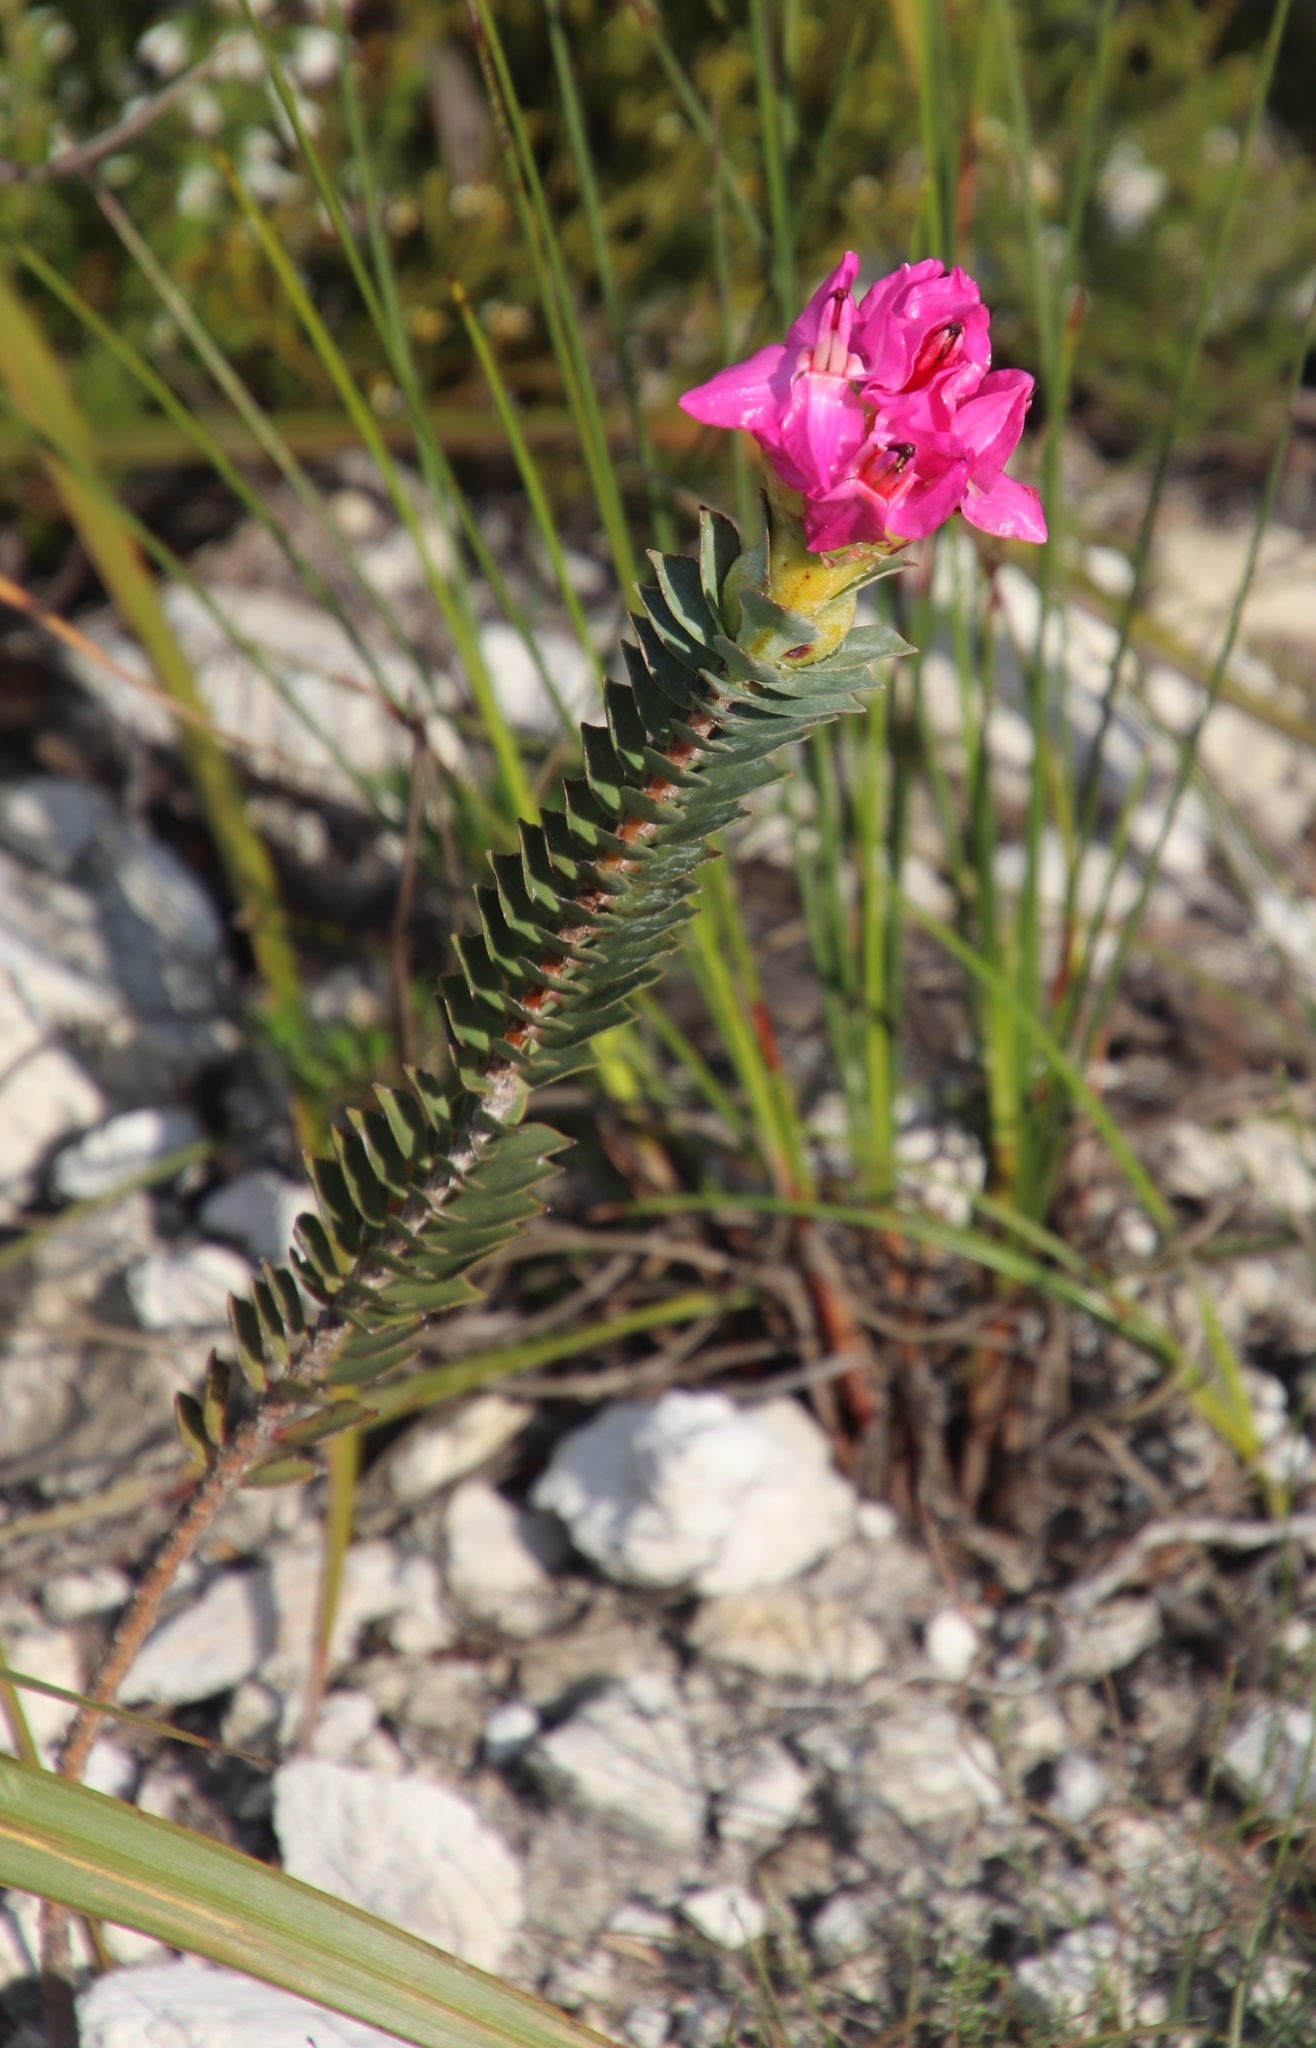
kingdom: Plantae
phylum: Tracheophyta
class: Magnoliopsida
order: Myrtales
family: Penaeaceae
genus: Saltera
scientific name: Saltera sarcocolla
